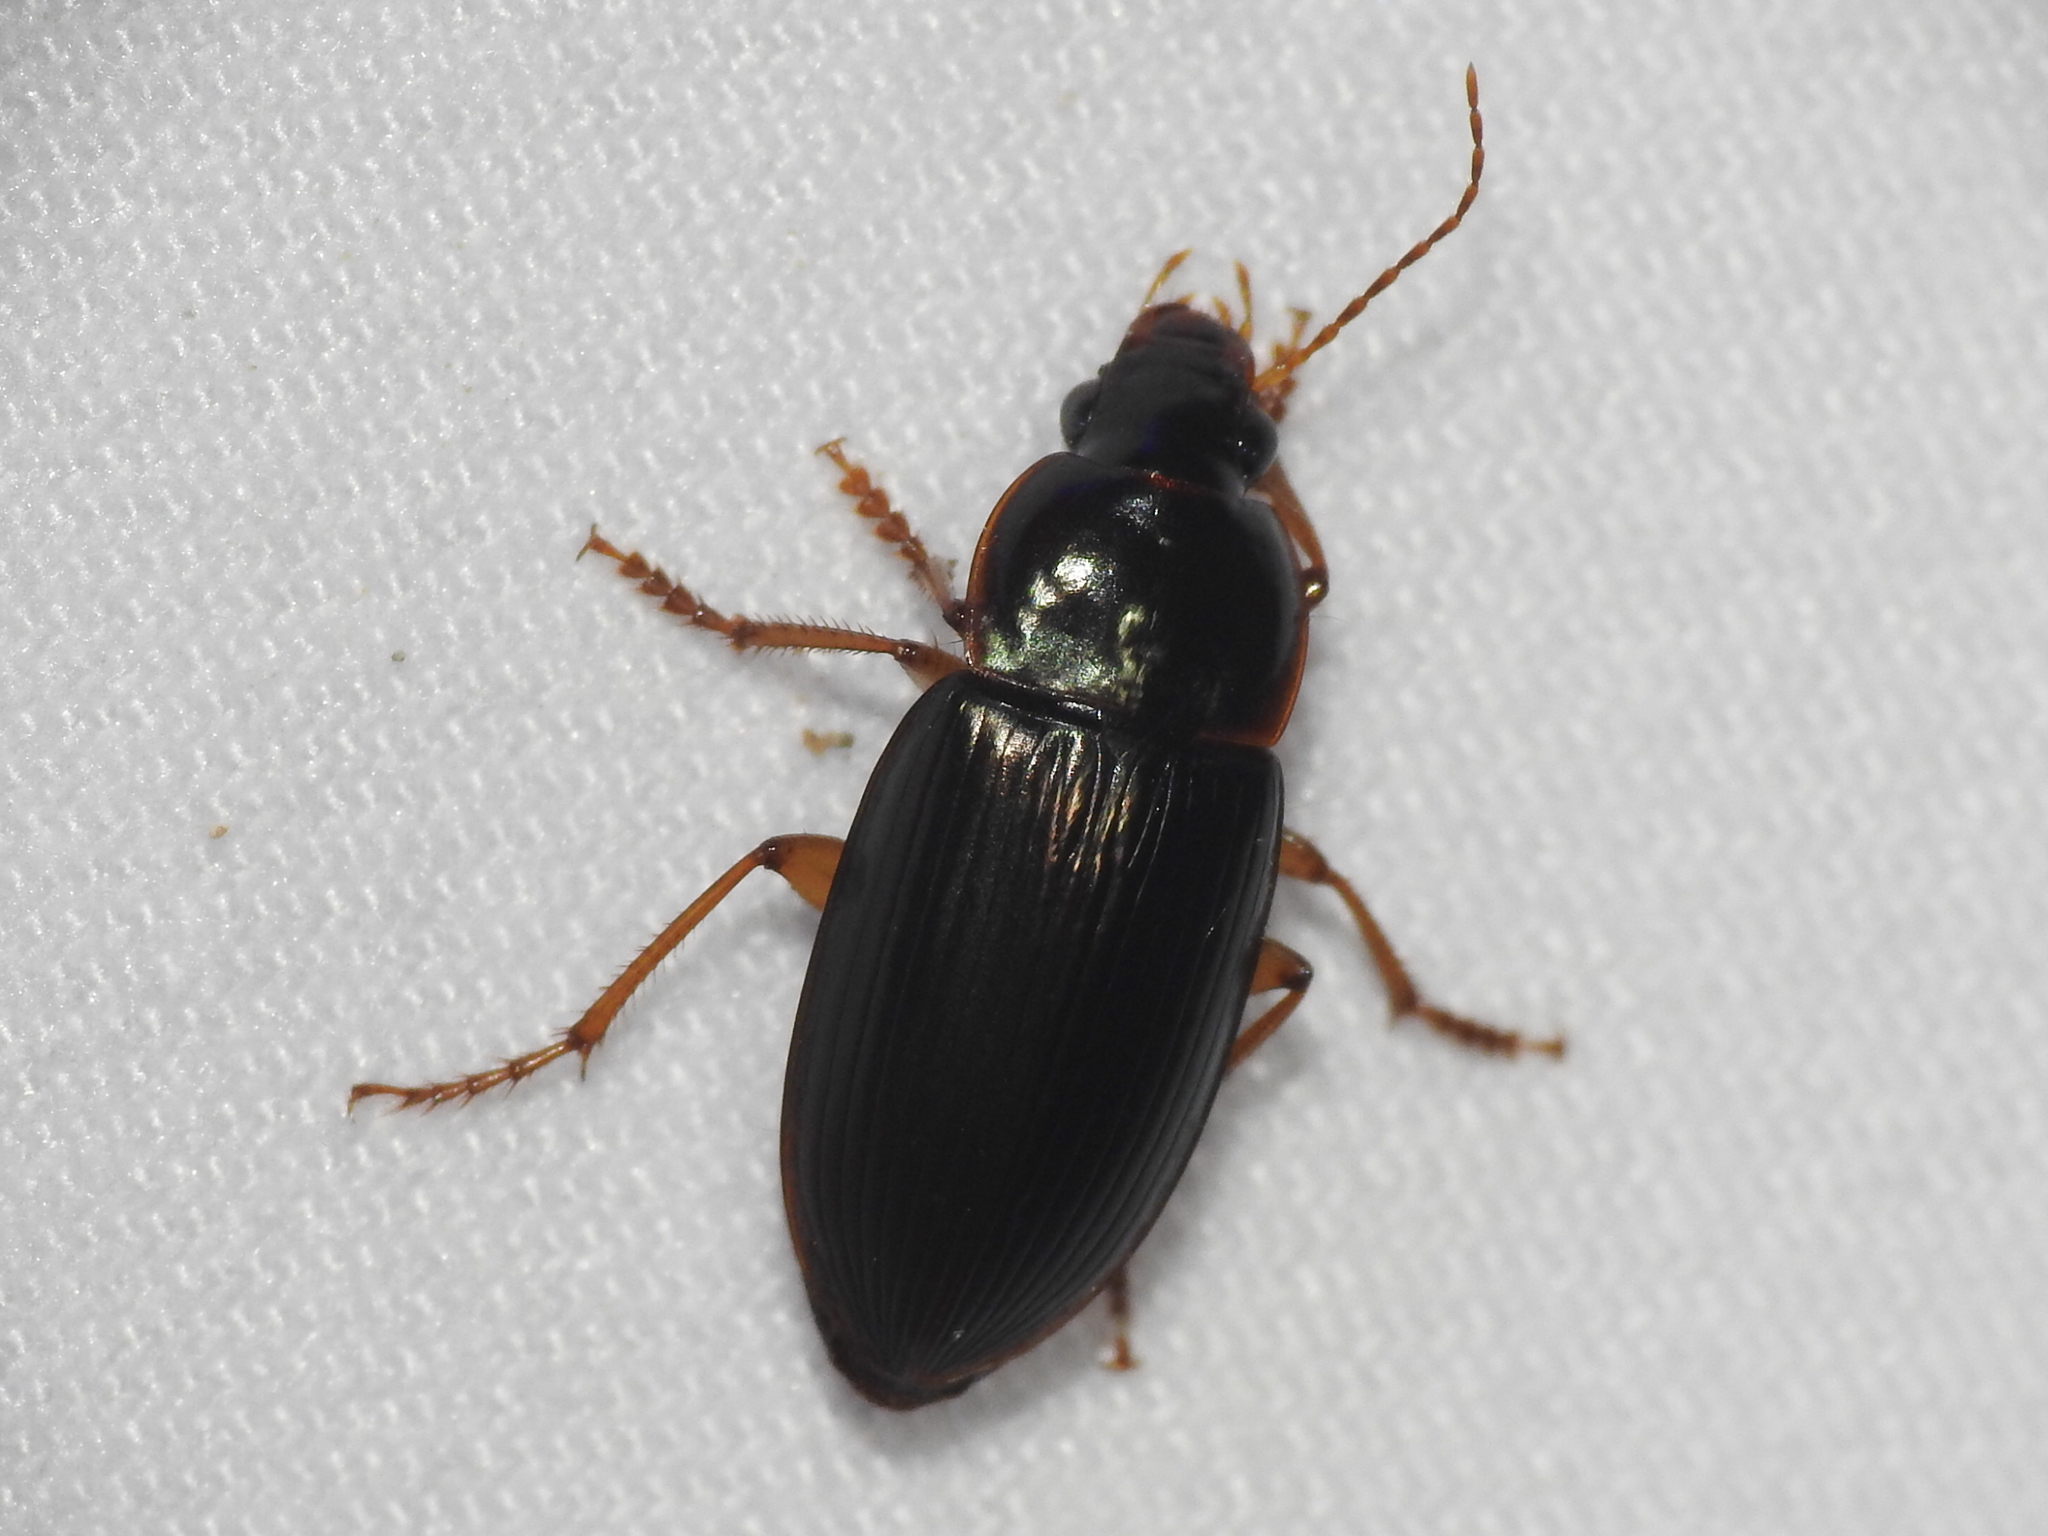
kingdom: Animalia
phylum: Arthropoda
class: Insecta
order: Coleoptera
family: Carabidae
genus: Notiobia
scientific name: Notiobia terminata
